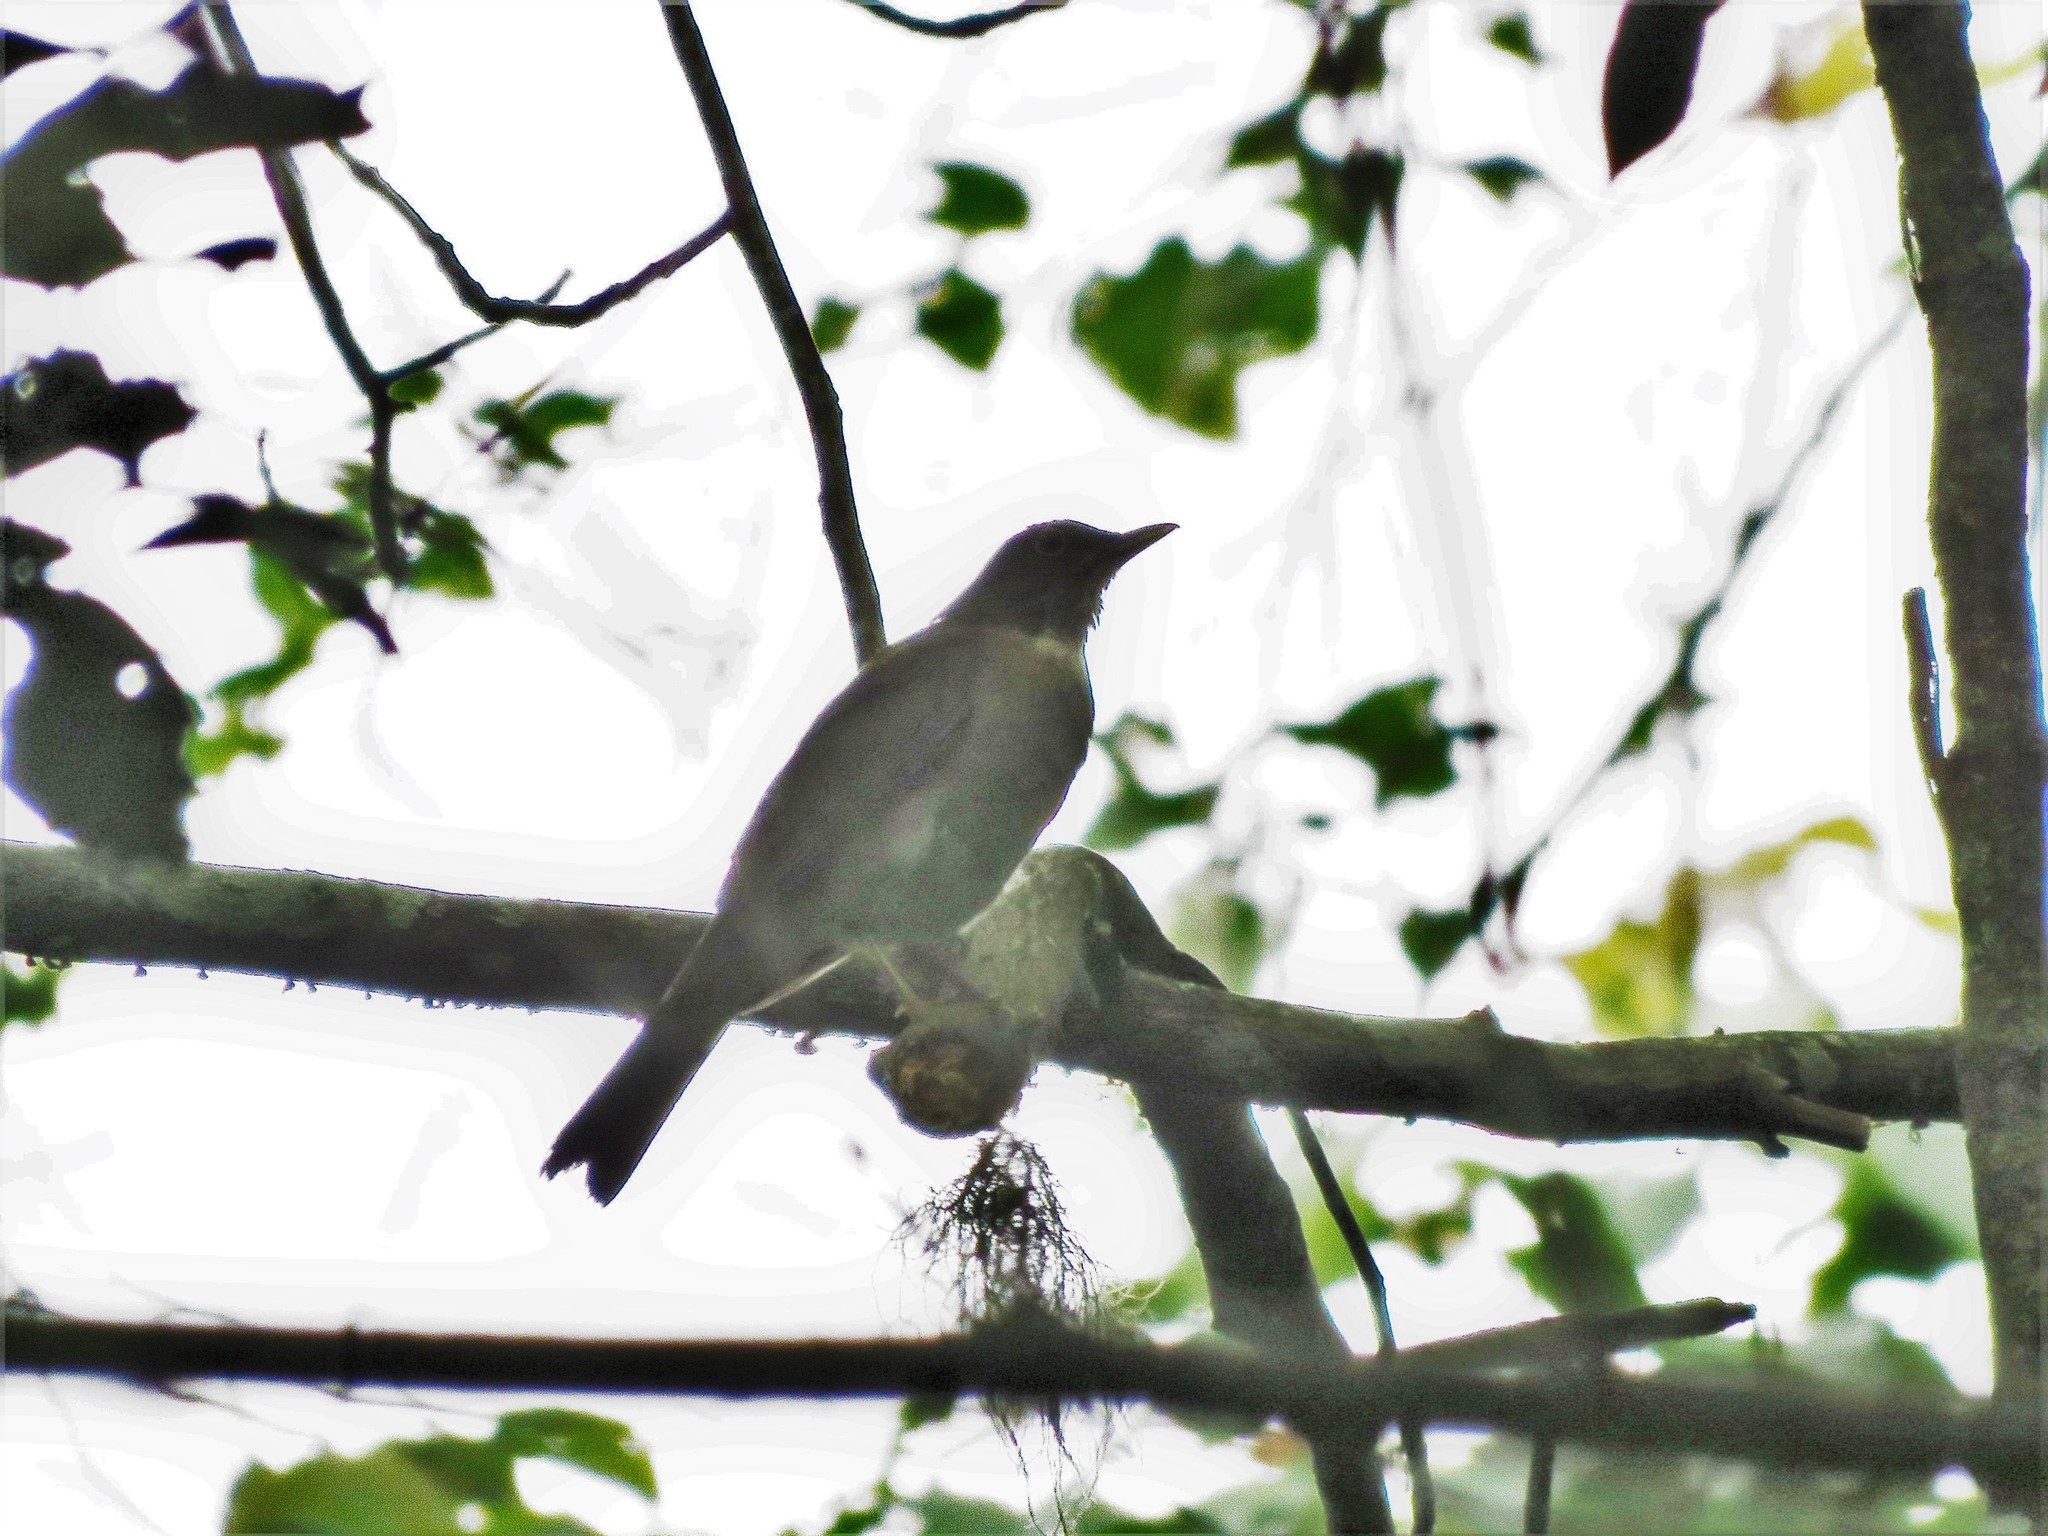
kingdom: Animalia
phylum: Chordata
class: Aves
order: Passeriformes
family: Turdidae
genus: Turdus
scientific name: Turdus assimilis
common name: White-throated thrush
